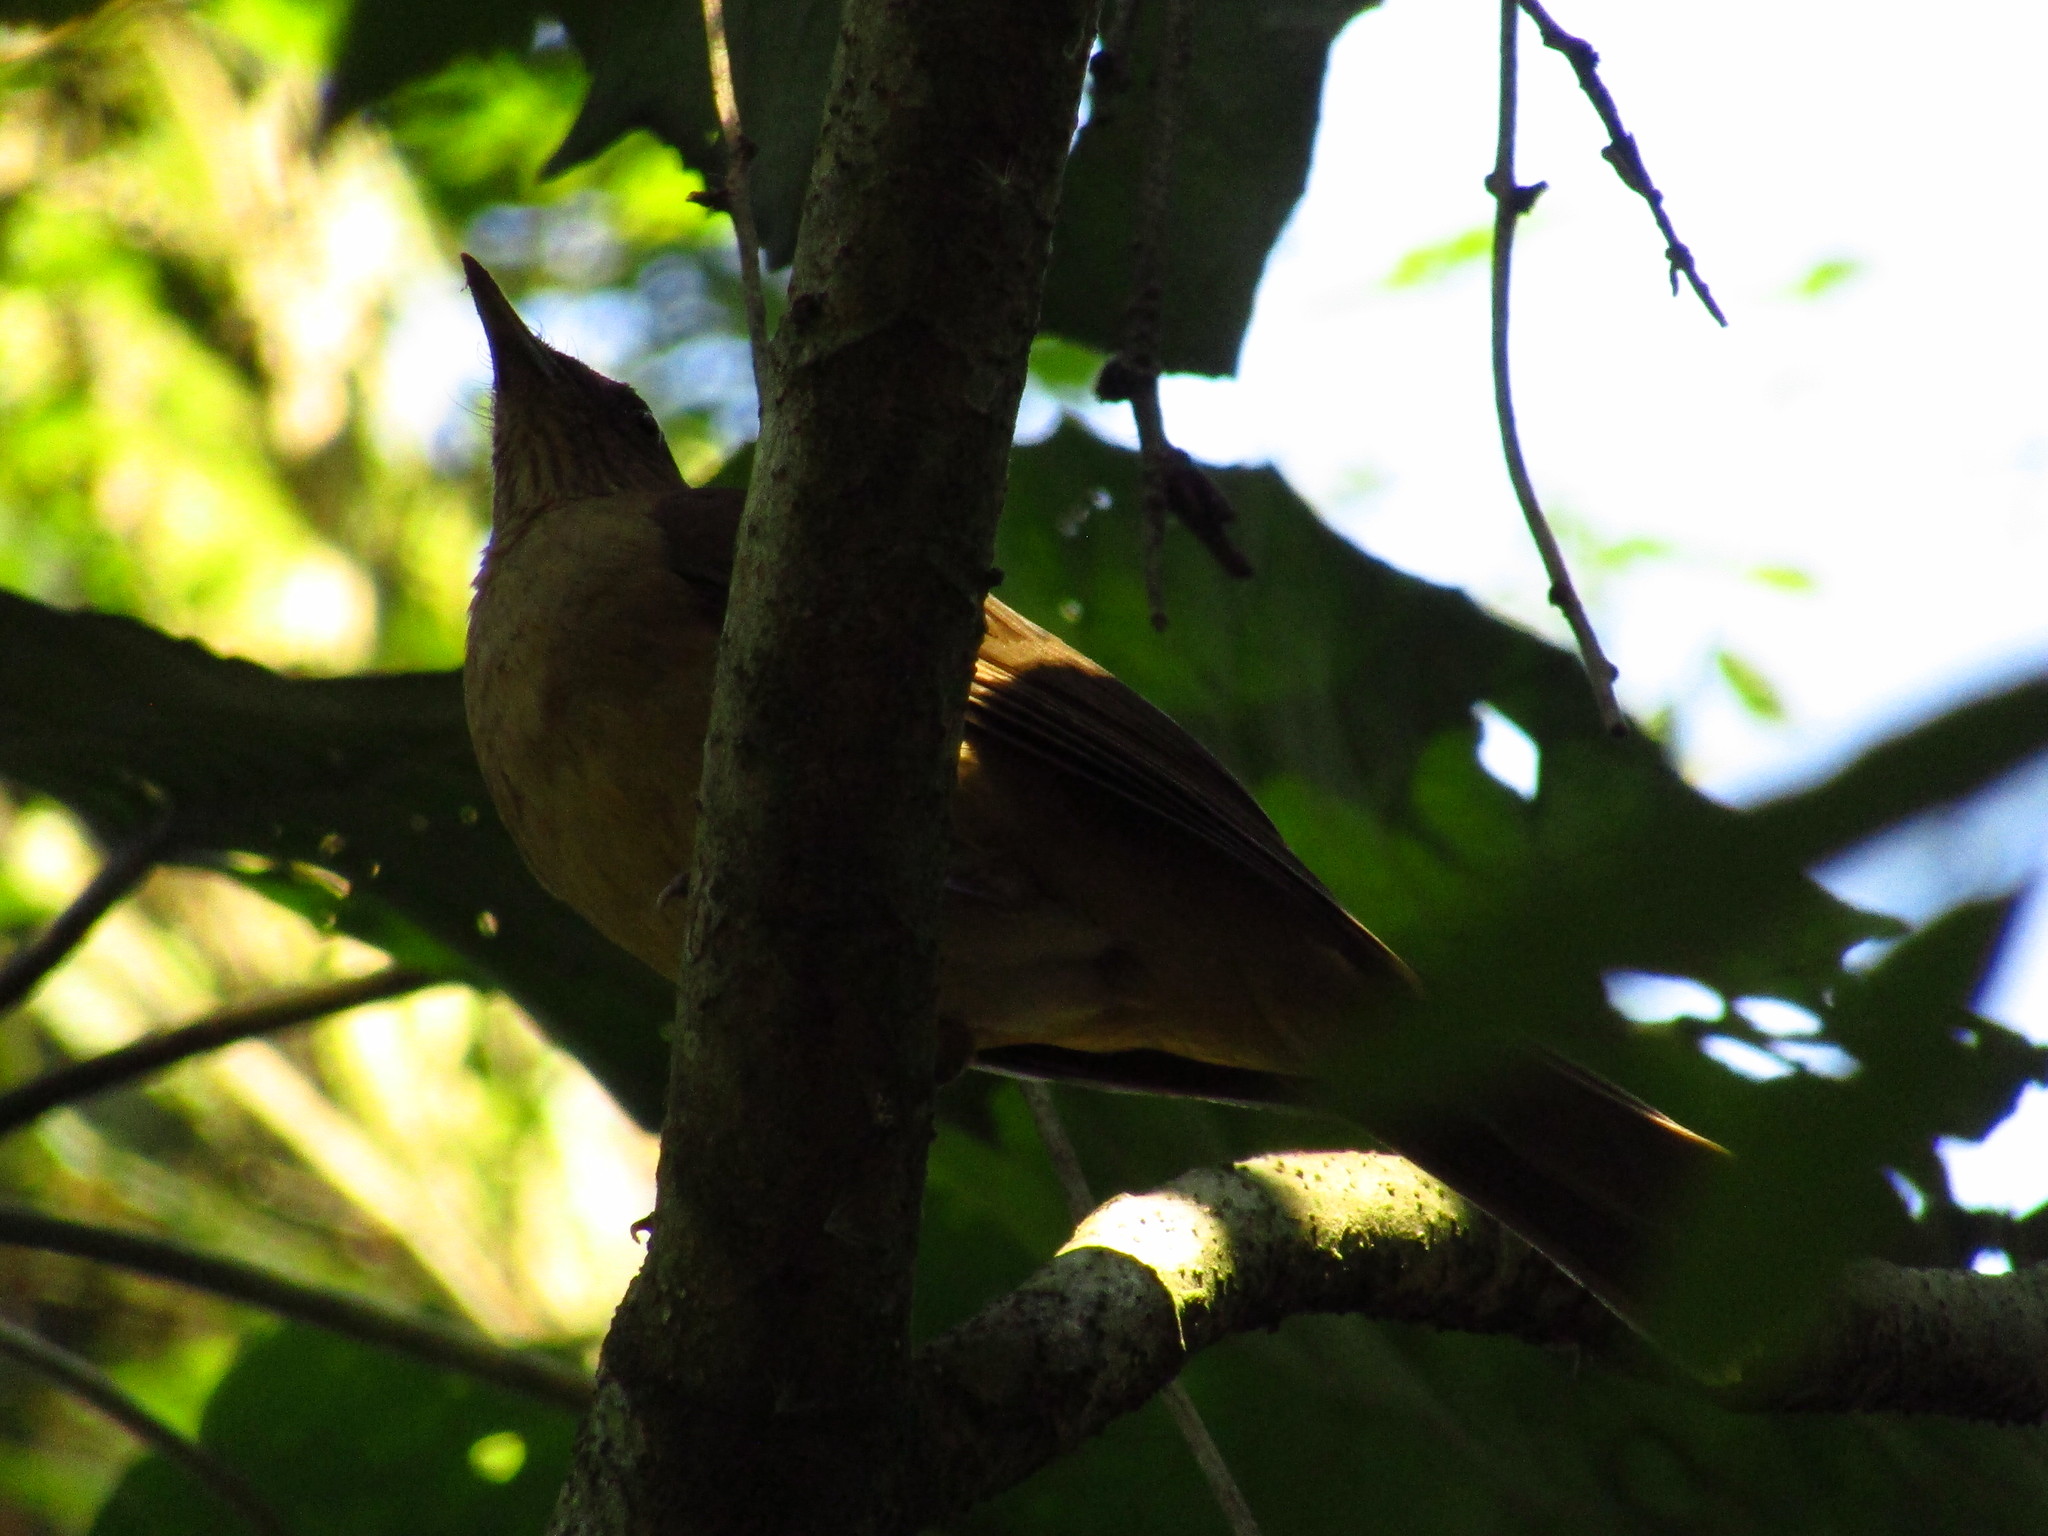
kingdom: Animalia
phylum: Chordata
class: Aves
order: Passeriformes
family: Turdidae
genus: Turdus
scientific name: Turdus grayi
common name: Clay-colored thrush
